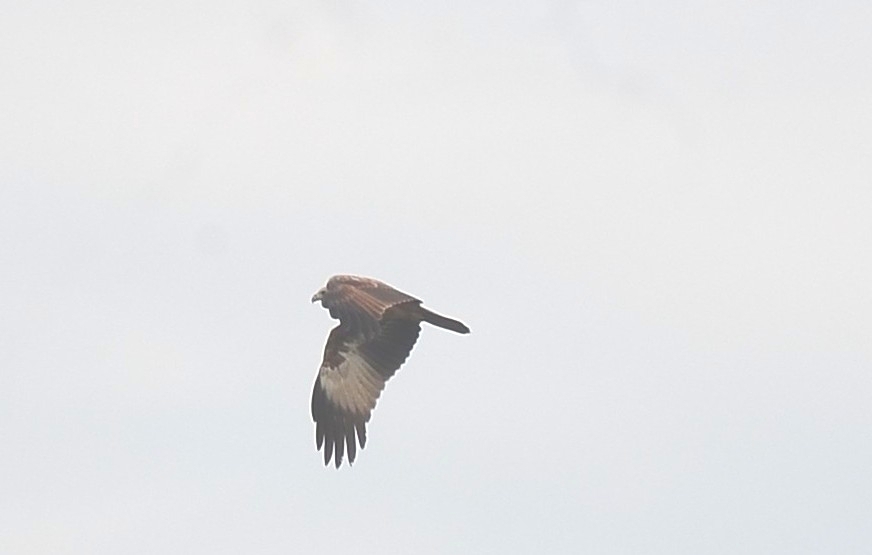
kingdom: Animalia
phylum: Chordata
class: Aves
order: Accipitriformes
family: Accipitridae
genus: Haliastur
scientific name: Haliastur indus
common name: Brahminy kite
